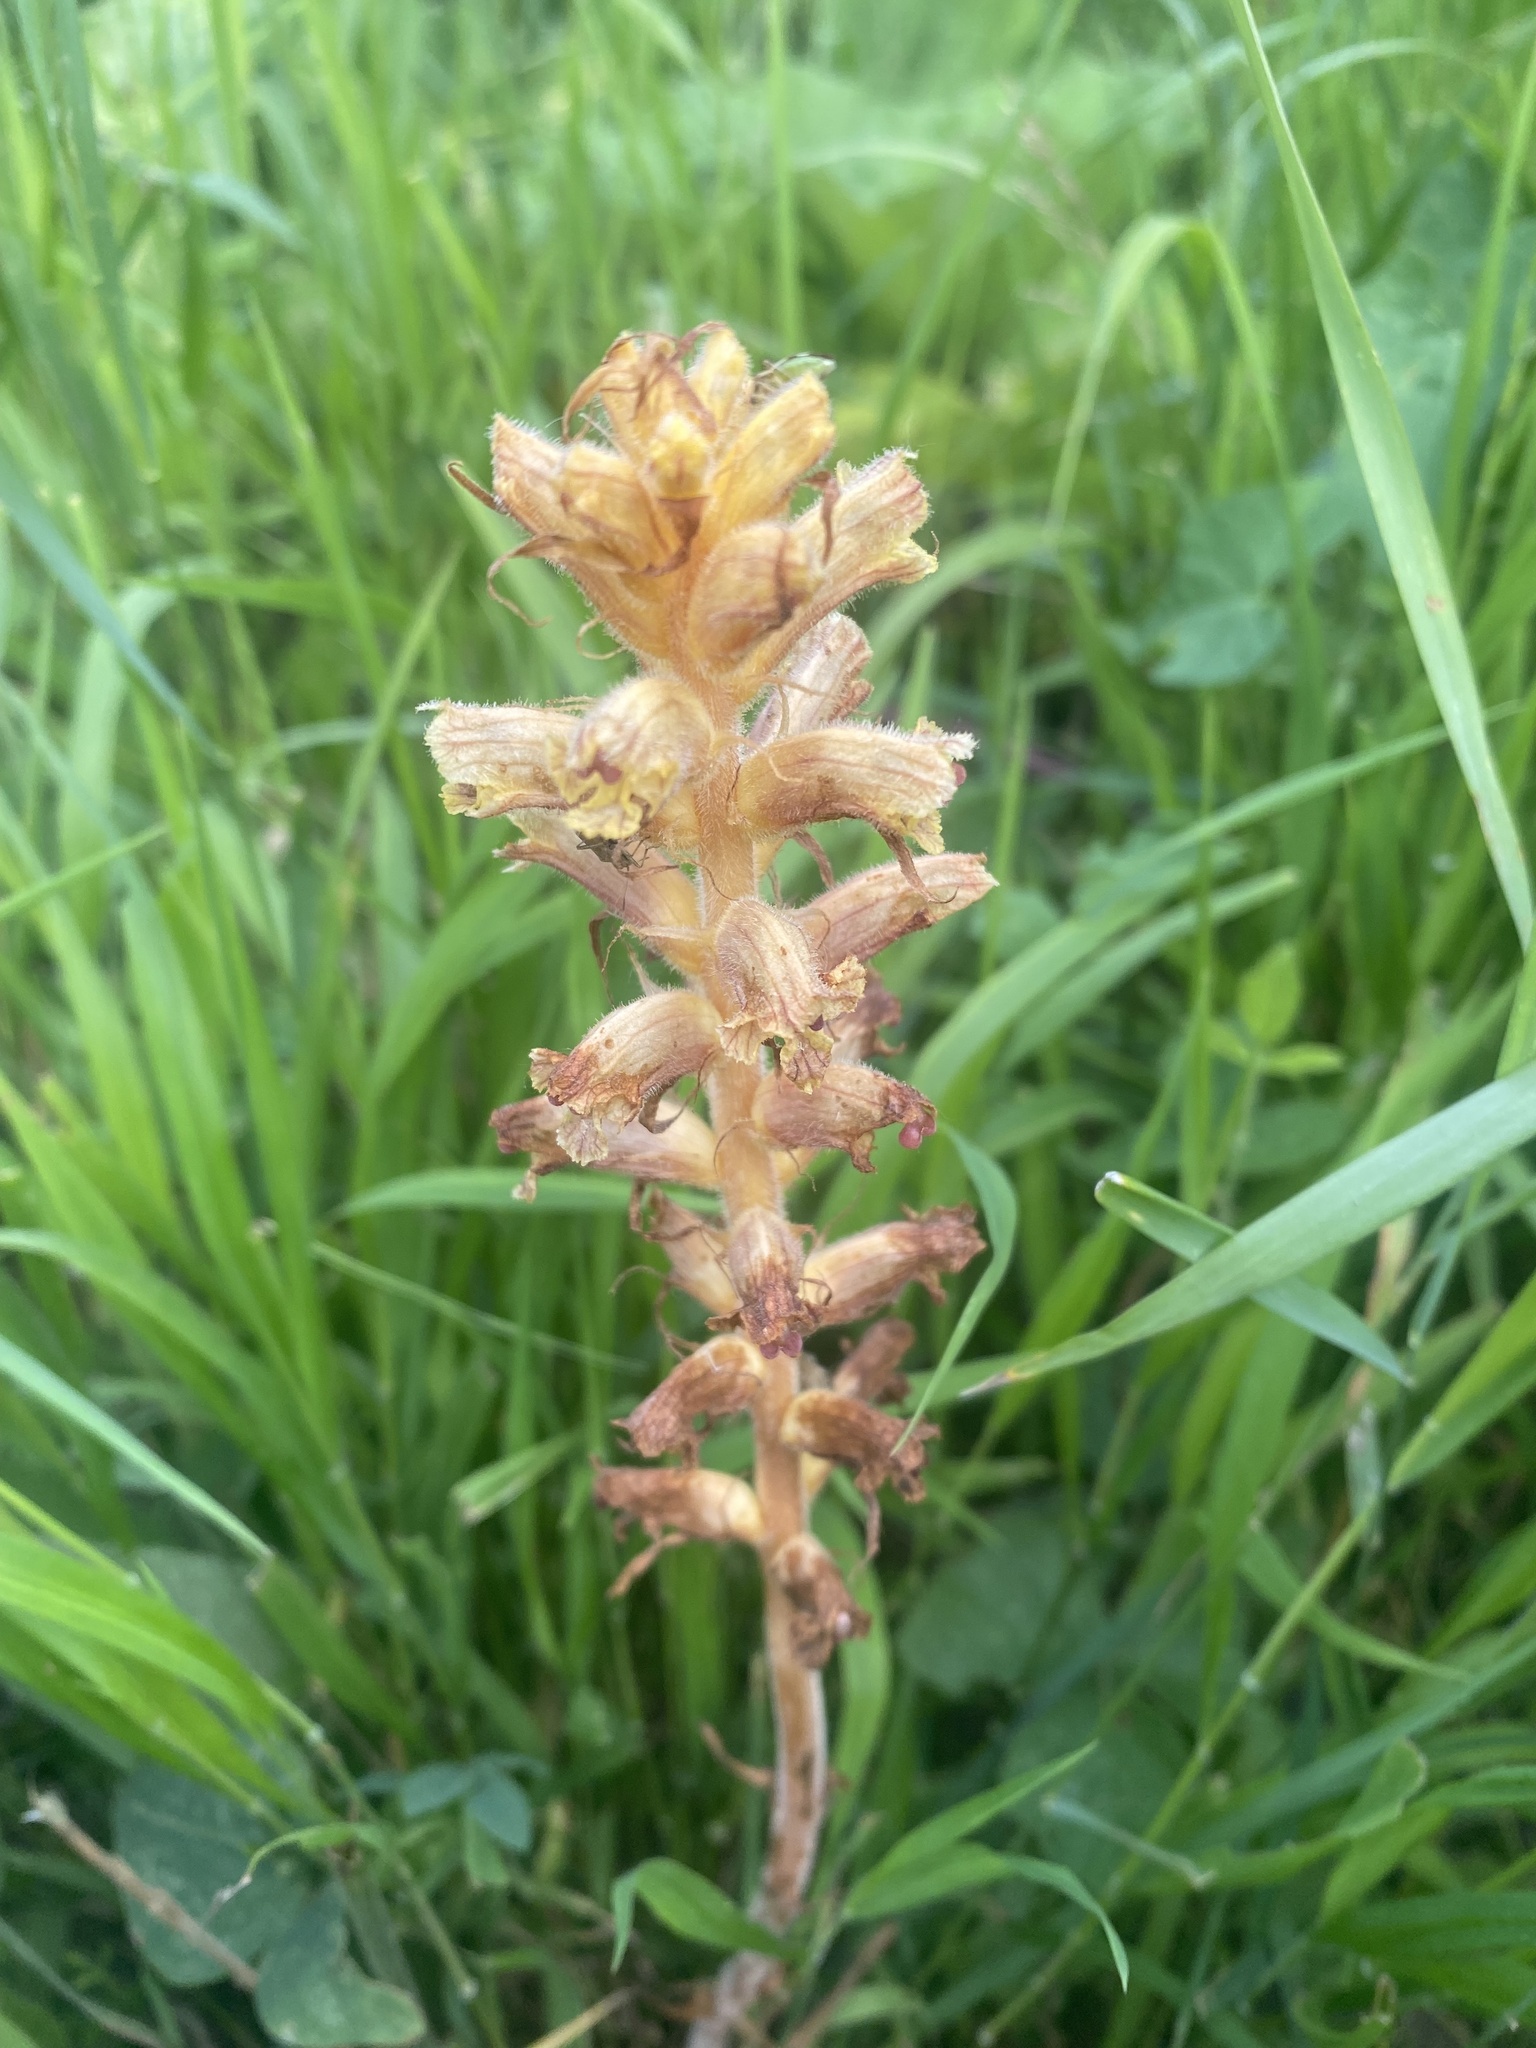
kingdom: Plantae
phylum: Tracheophyta
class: Magnoliopsida
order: Lamiales
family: Orobanchaceae
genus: Orobanche
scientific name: Orobanche laxissima
